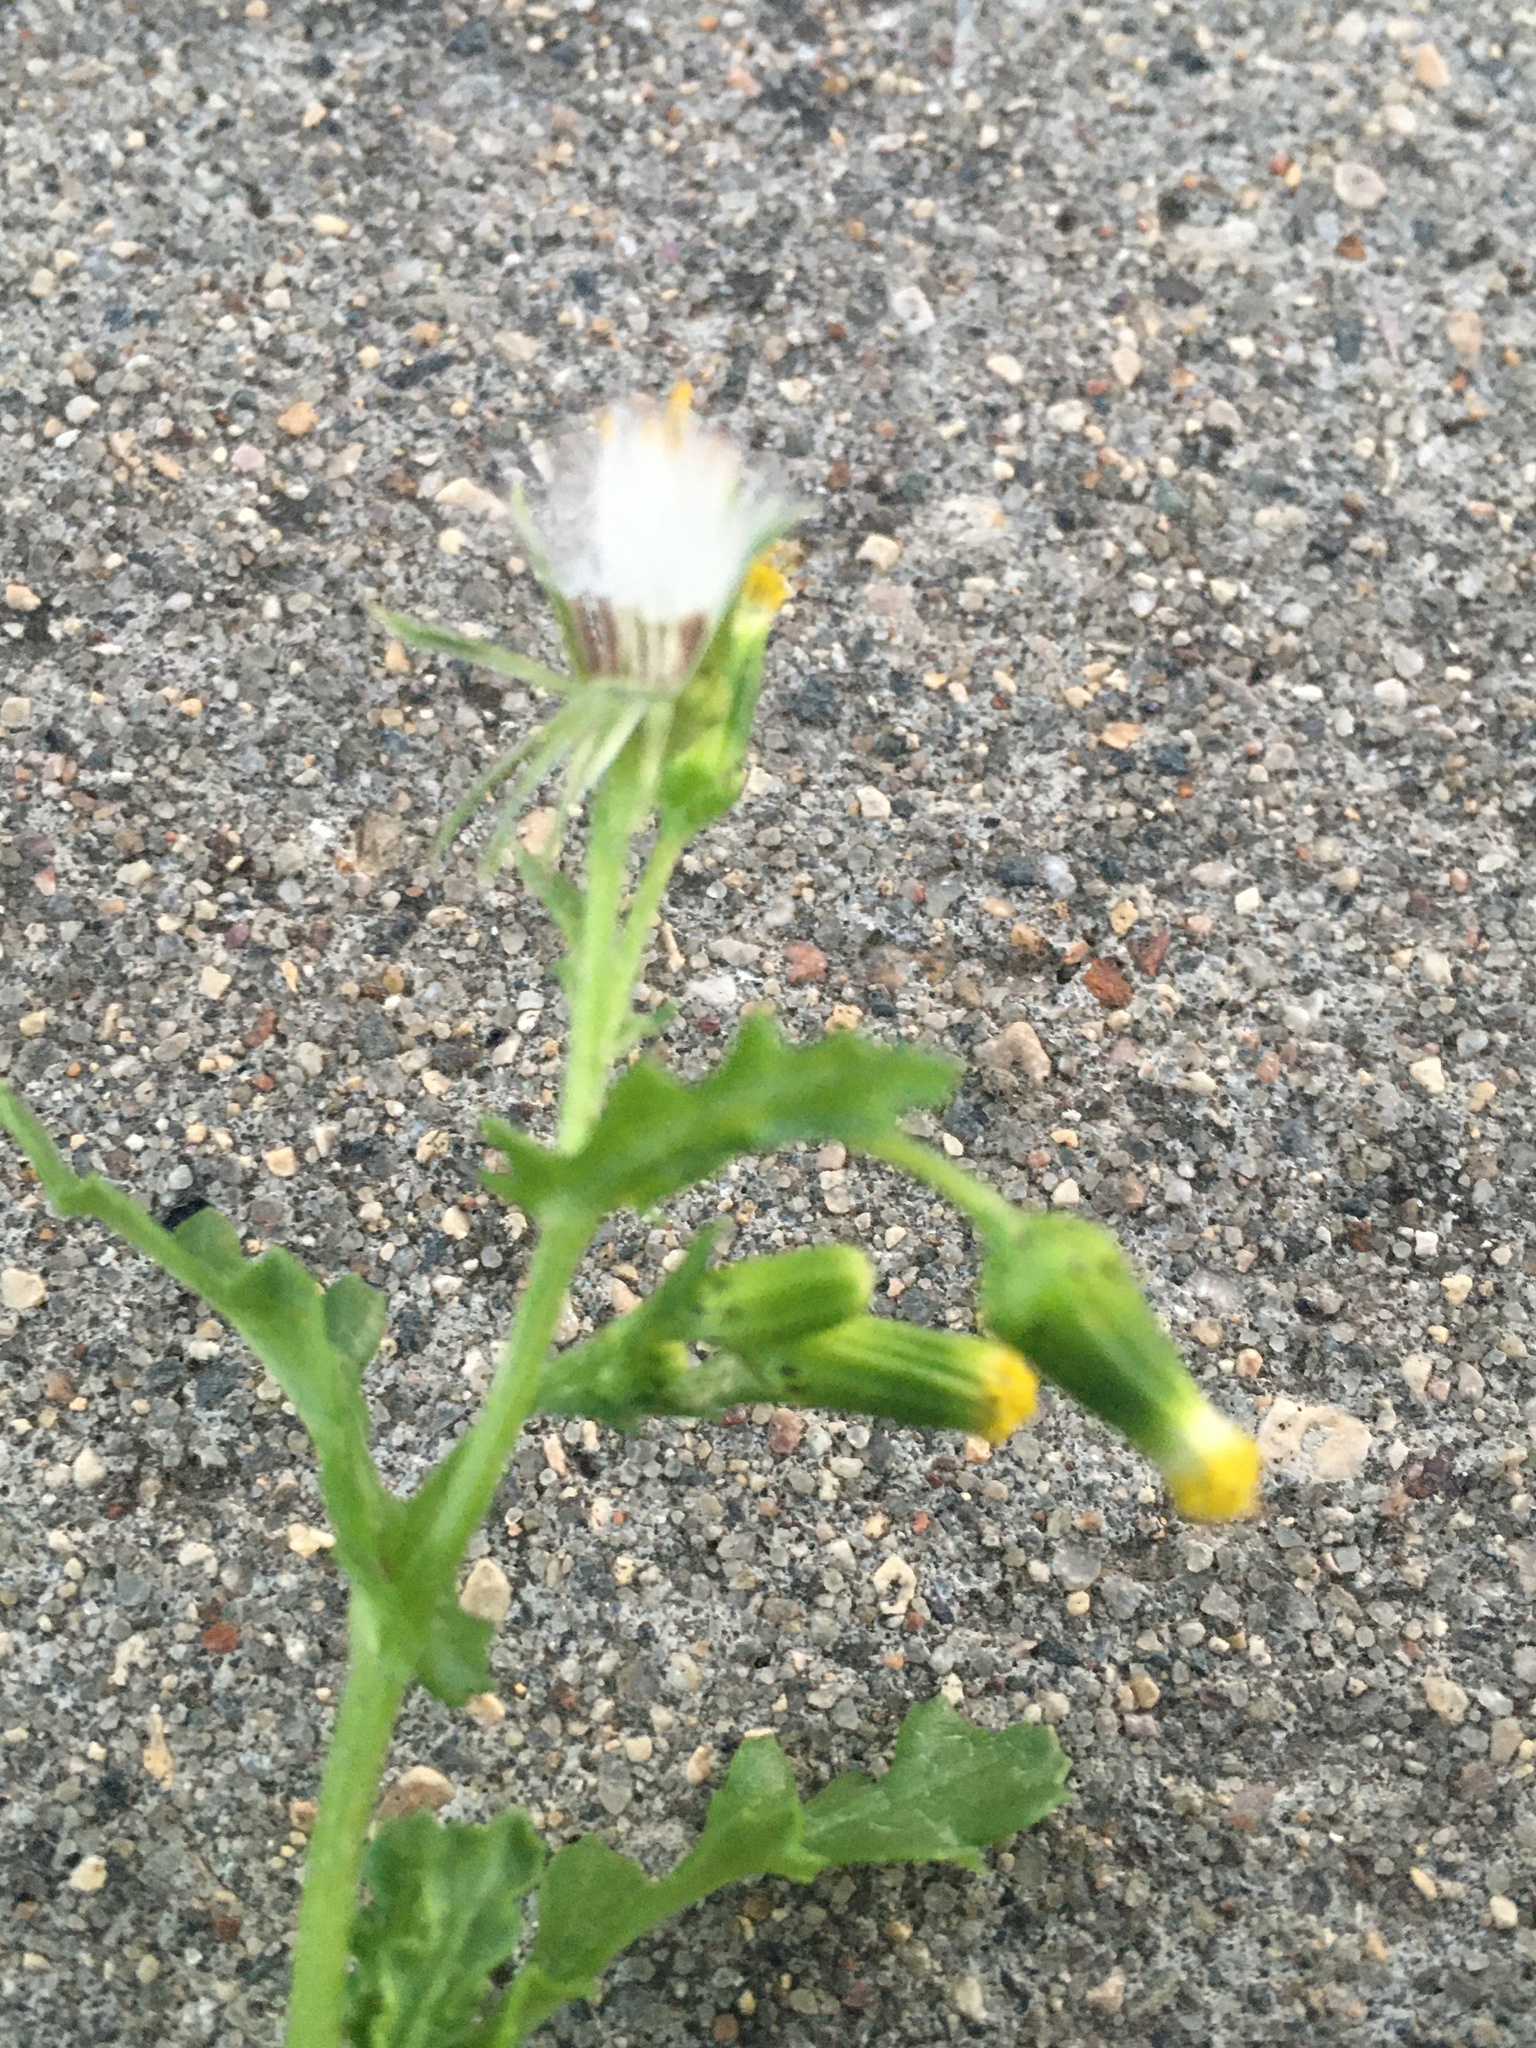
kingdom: Plantae
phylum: Tracheophyta
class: Magnoliopsida
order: Asterales
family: Asteraceae
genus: Senecio
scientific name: Senecio vulgaris
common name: Old-man-in-the-spring
